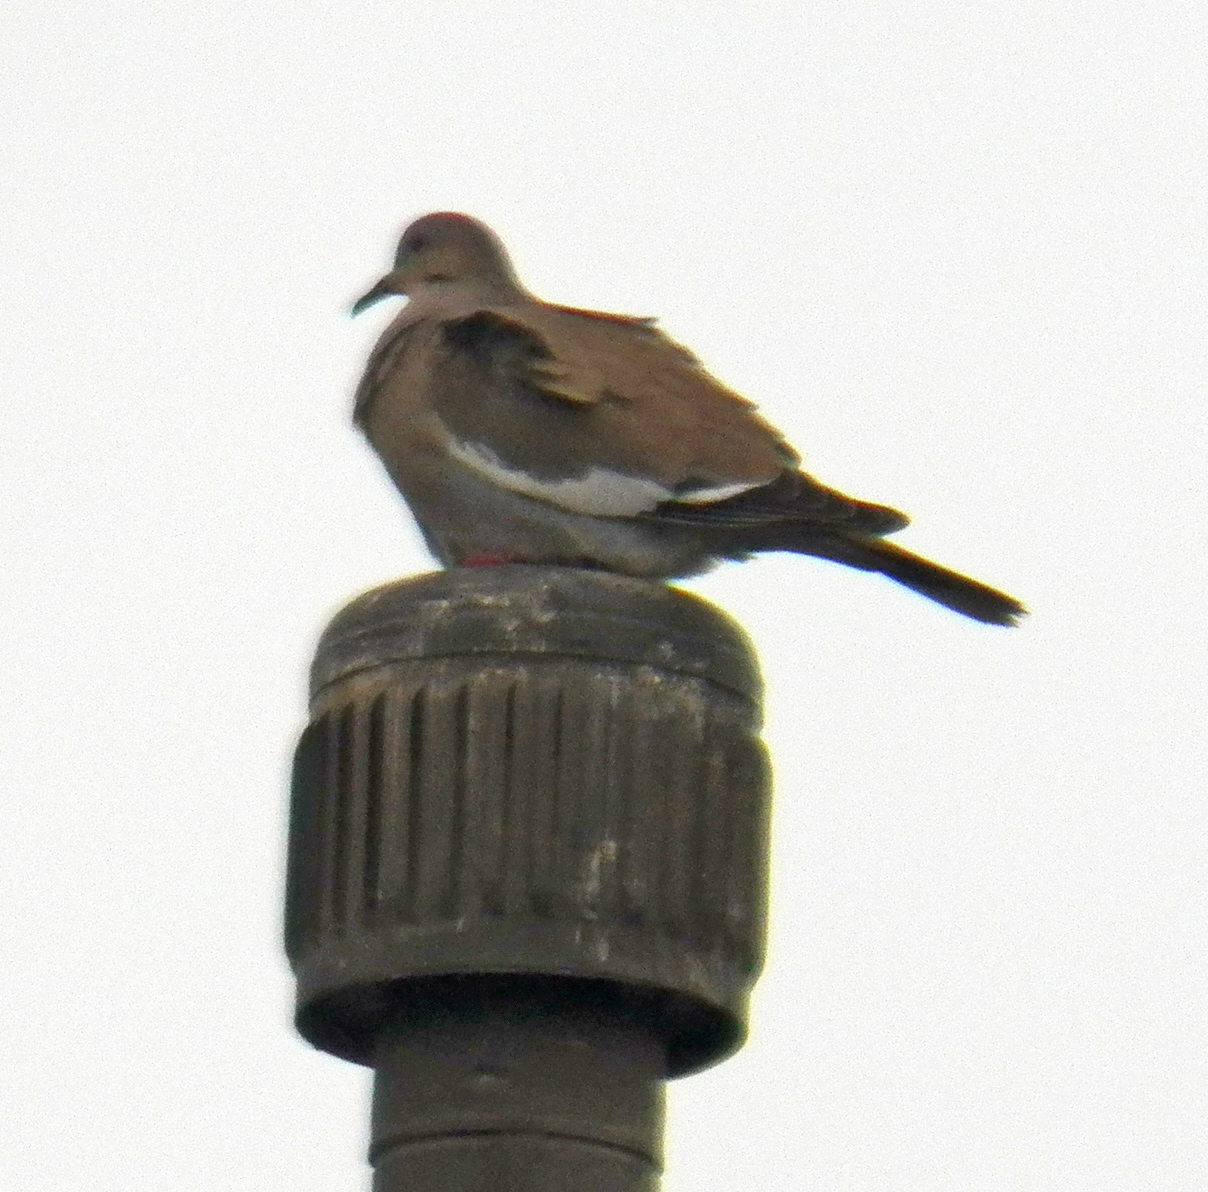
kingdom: Animalia
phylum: Chordata
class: Aves
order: Columbiformes
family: Columbidae
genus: Zenaida
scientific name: Zenaida asiatica
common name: White-winged dove
